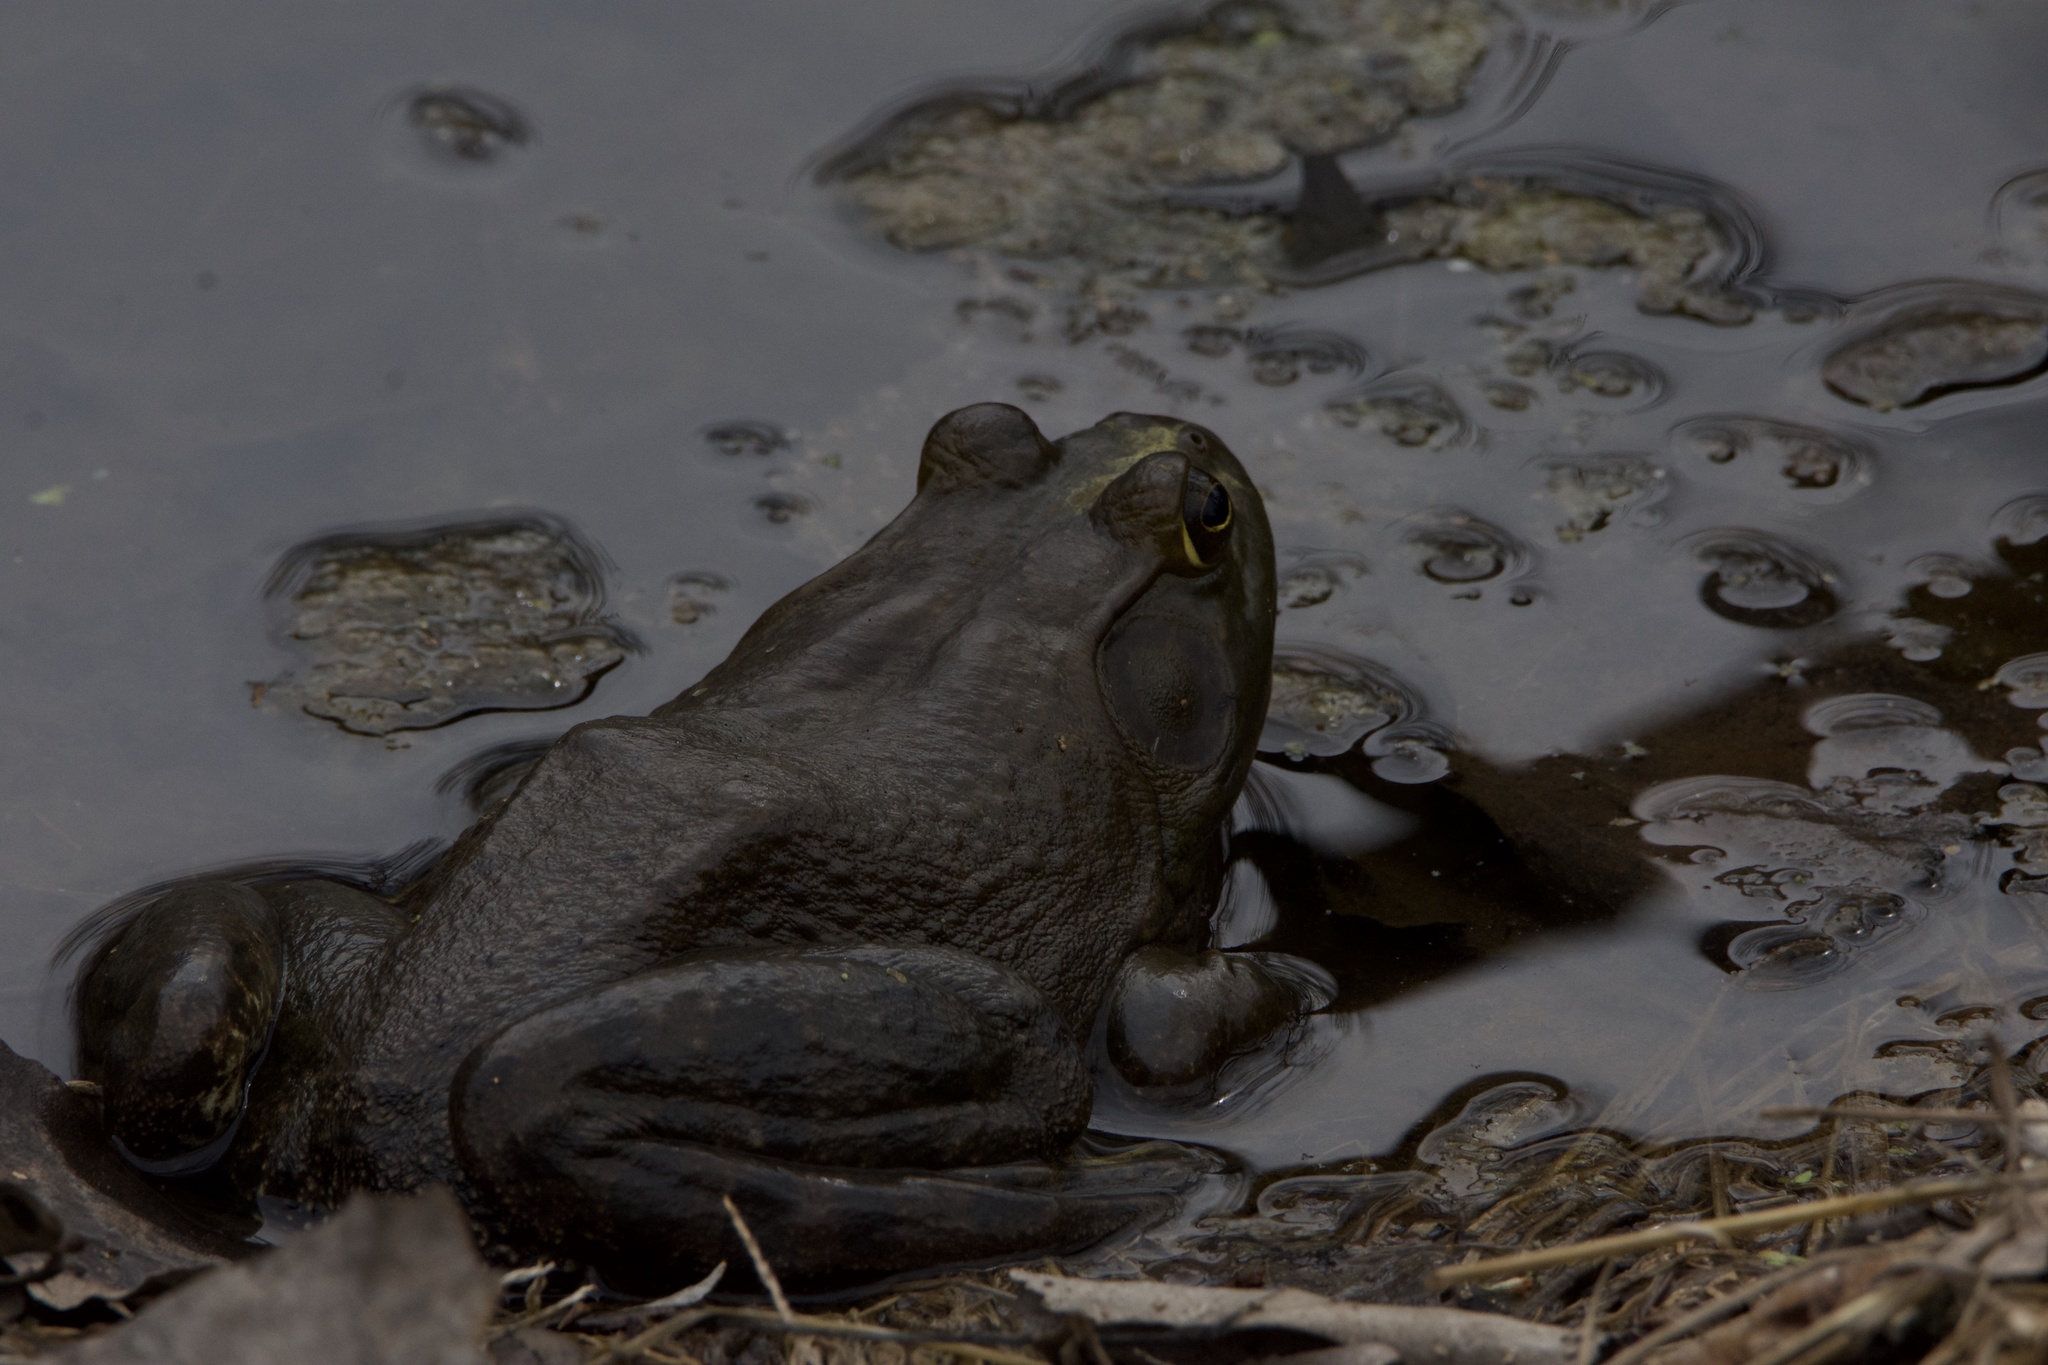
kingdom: Animalia
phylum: Chordata
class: Amphibia
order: Anura
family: Ranidae
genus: Lithobates
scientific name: Lithobates catesbeianus
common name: American bullfrog
